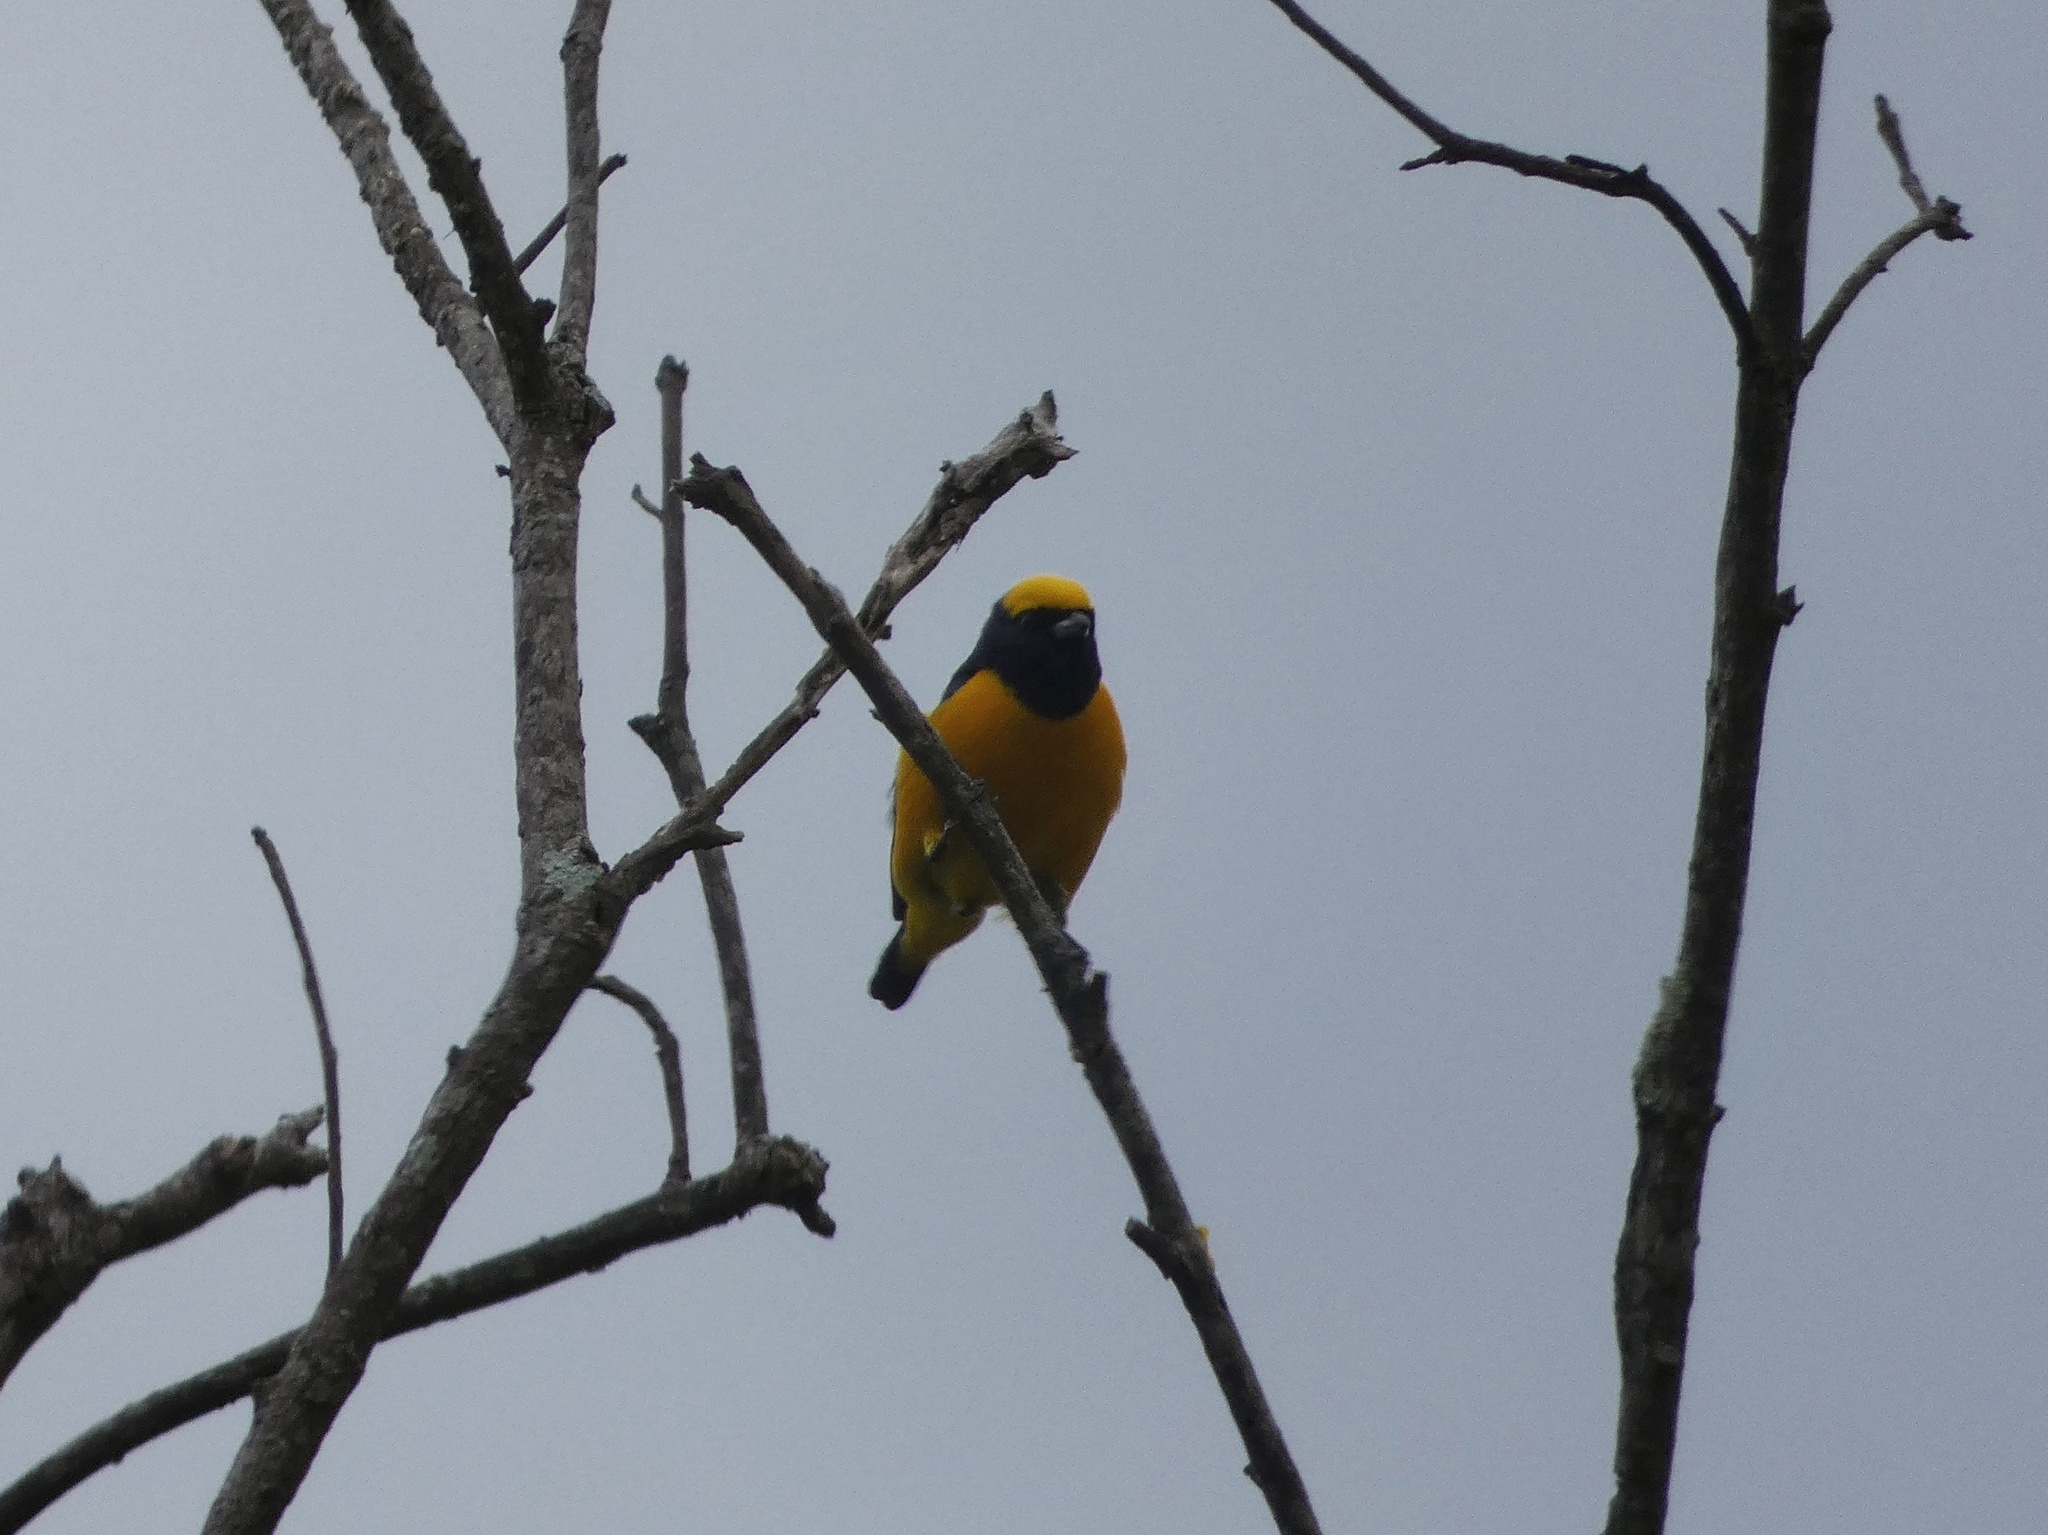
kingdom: Animalia
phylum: Chordata
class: Aves
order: Passeriformes
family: Fringillidae
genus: Euphonia
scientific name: Euphonia luteicapilla
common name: Yellow-crowned euphonia
